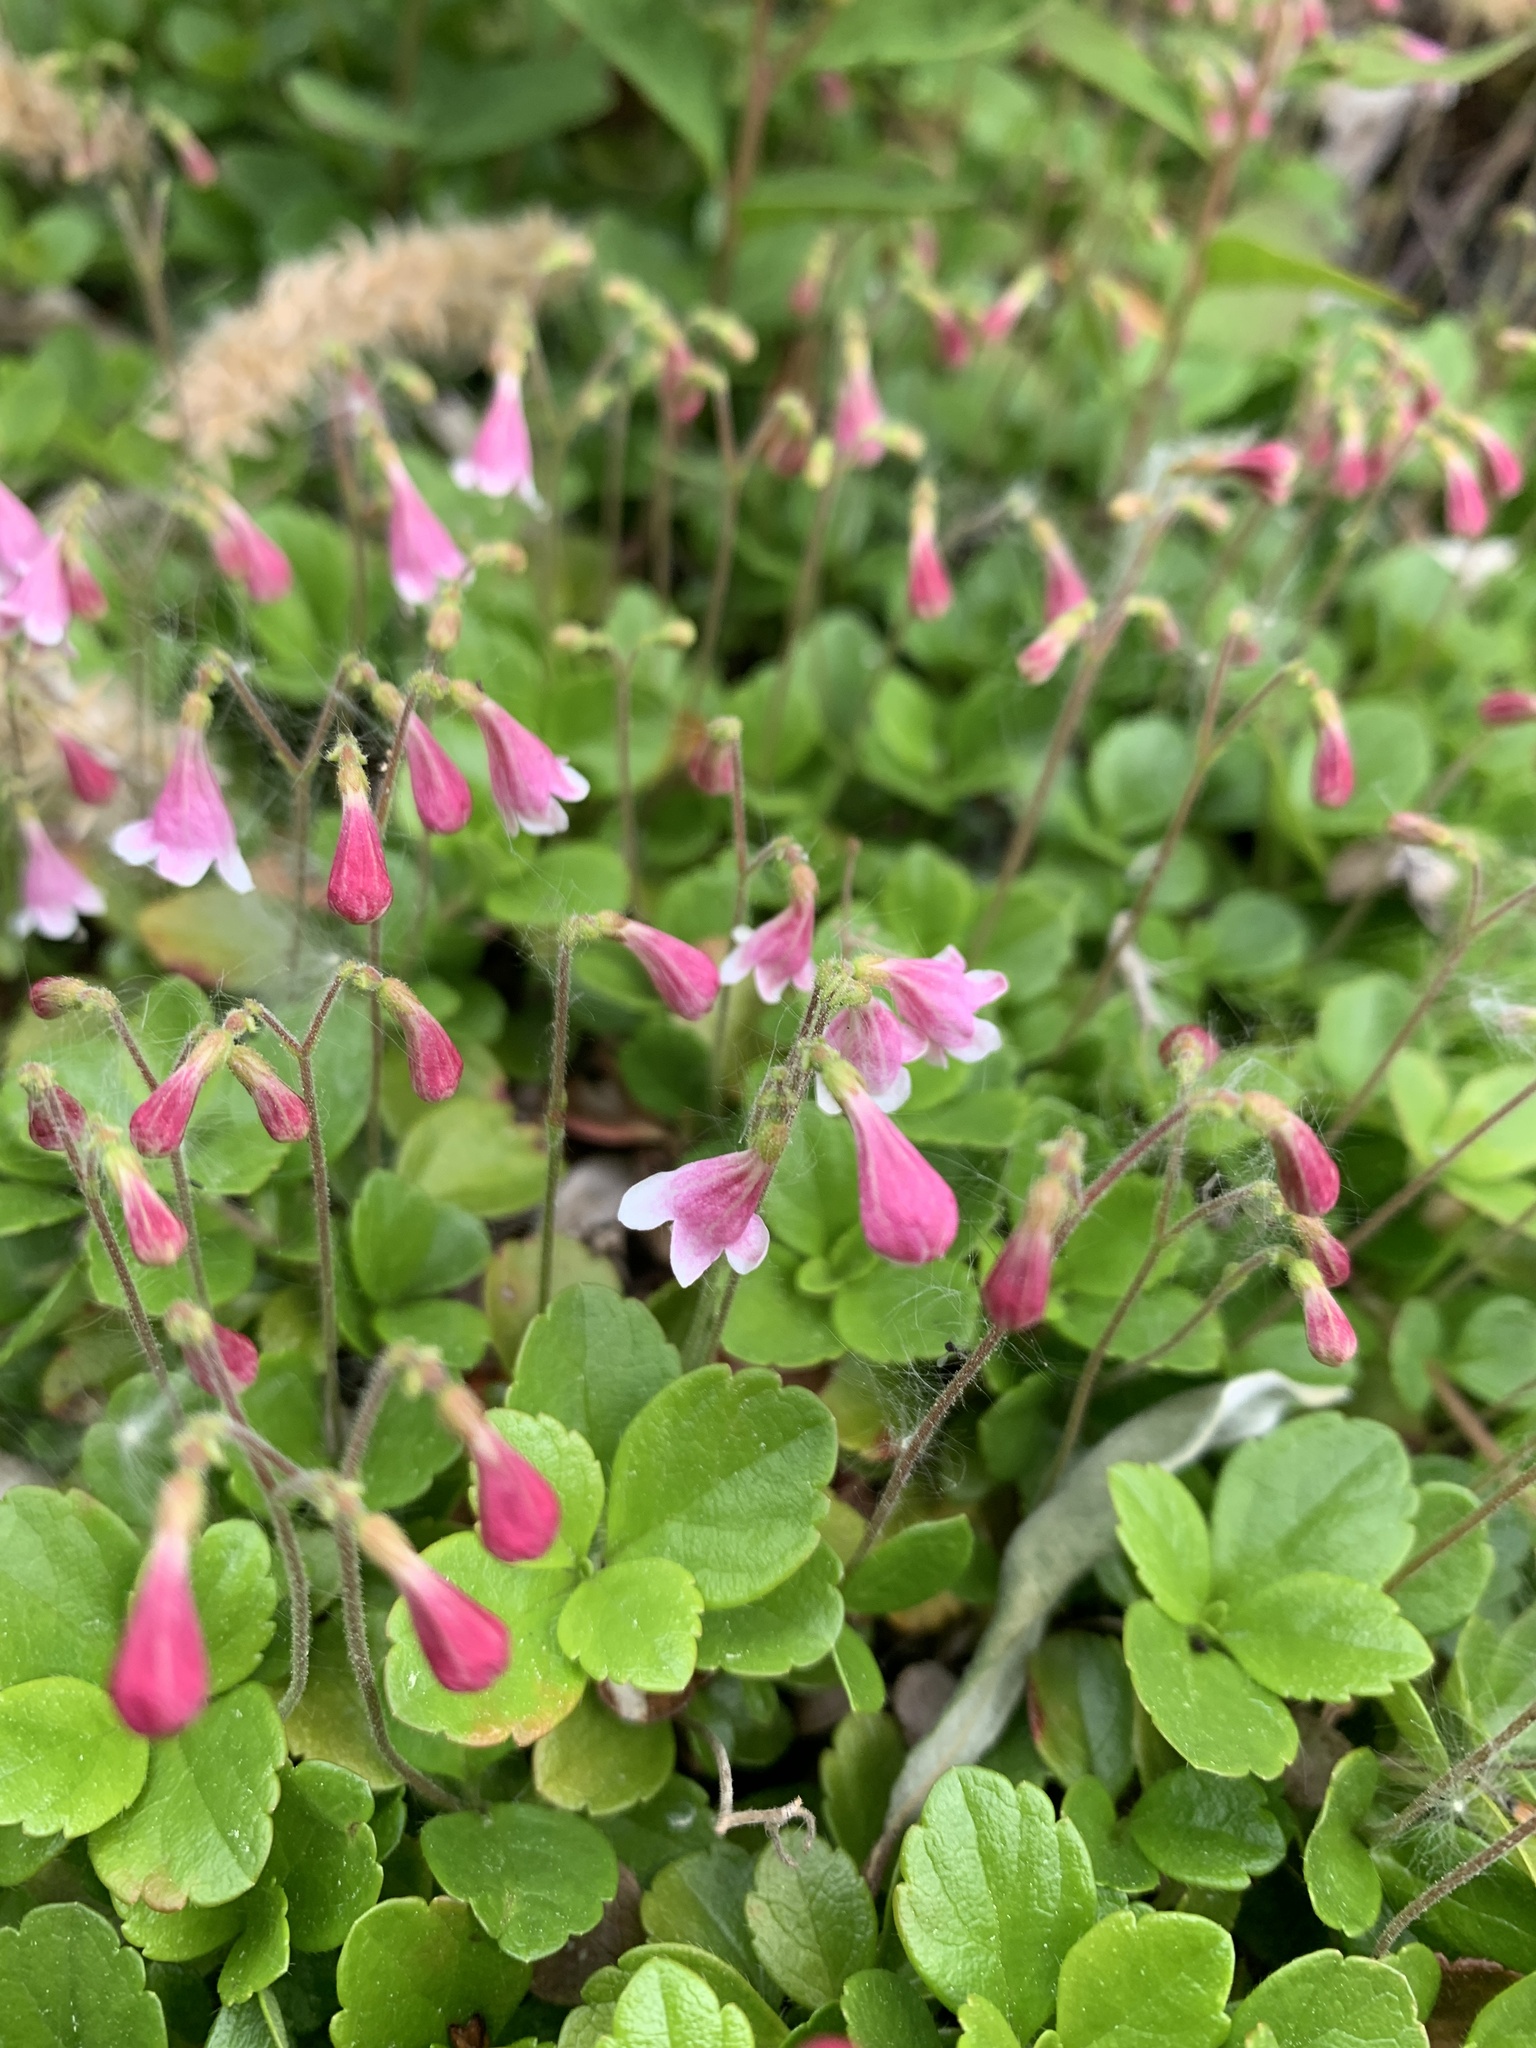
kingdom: Plantae
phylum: Tracheophyta
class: Magnoliopsida
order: Dipsacales
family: Caprifoliaceae
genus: Linnaea
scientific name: Linnaea borealis
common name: Twinflower
